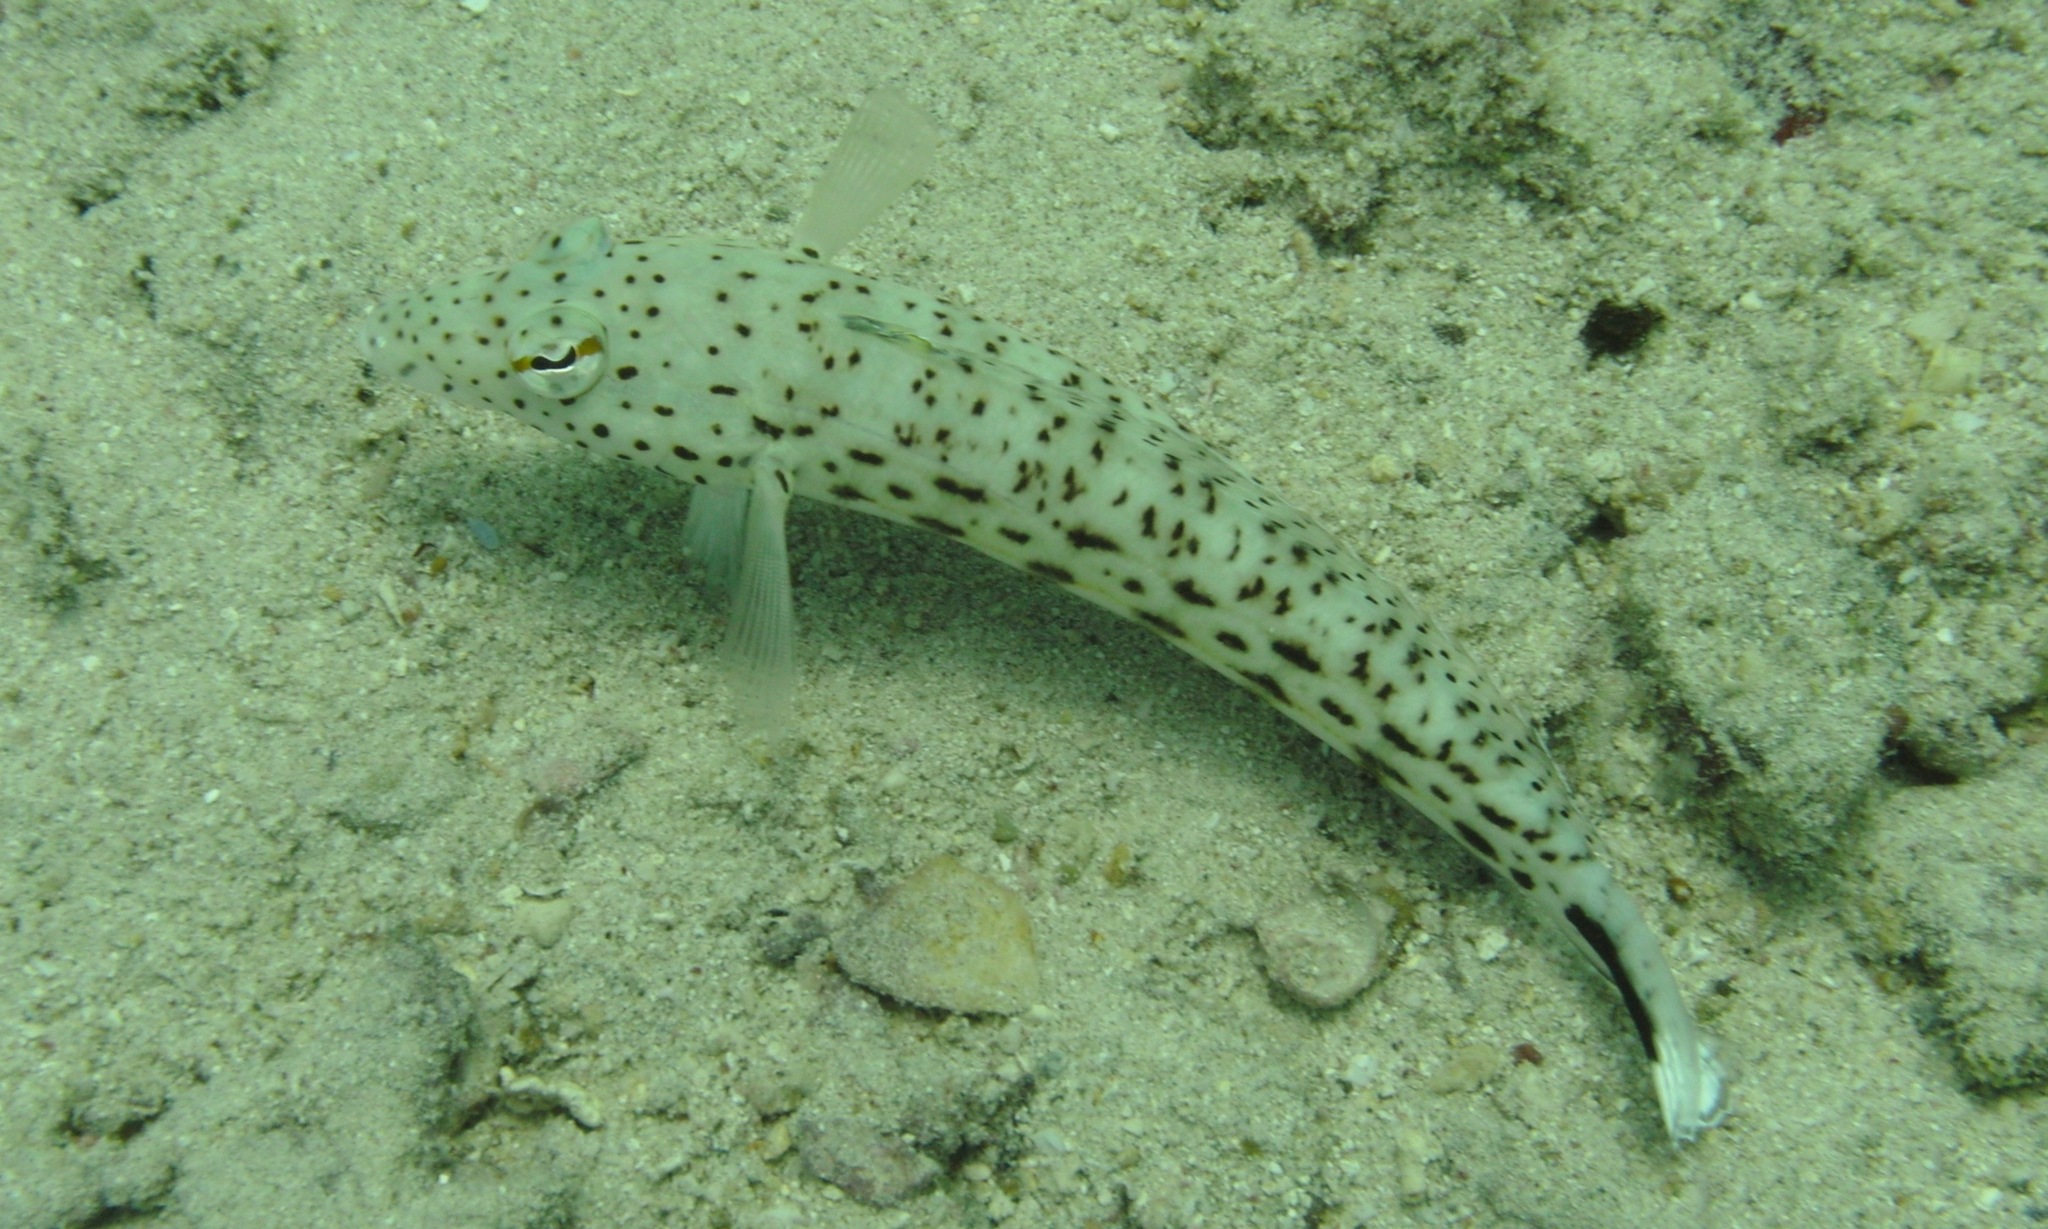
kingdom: Animalia
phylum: Chordata
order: Perciformes
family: Pinguipedidae
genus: Parapercis
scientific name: Parapercis hexophtalma
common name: Speckled sandperch
